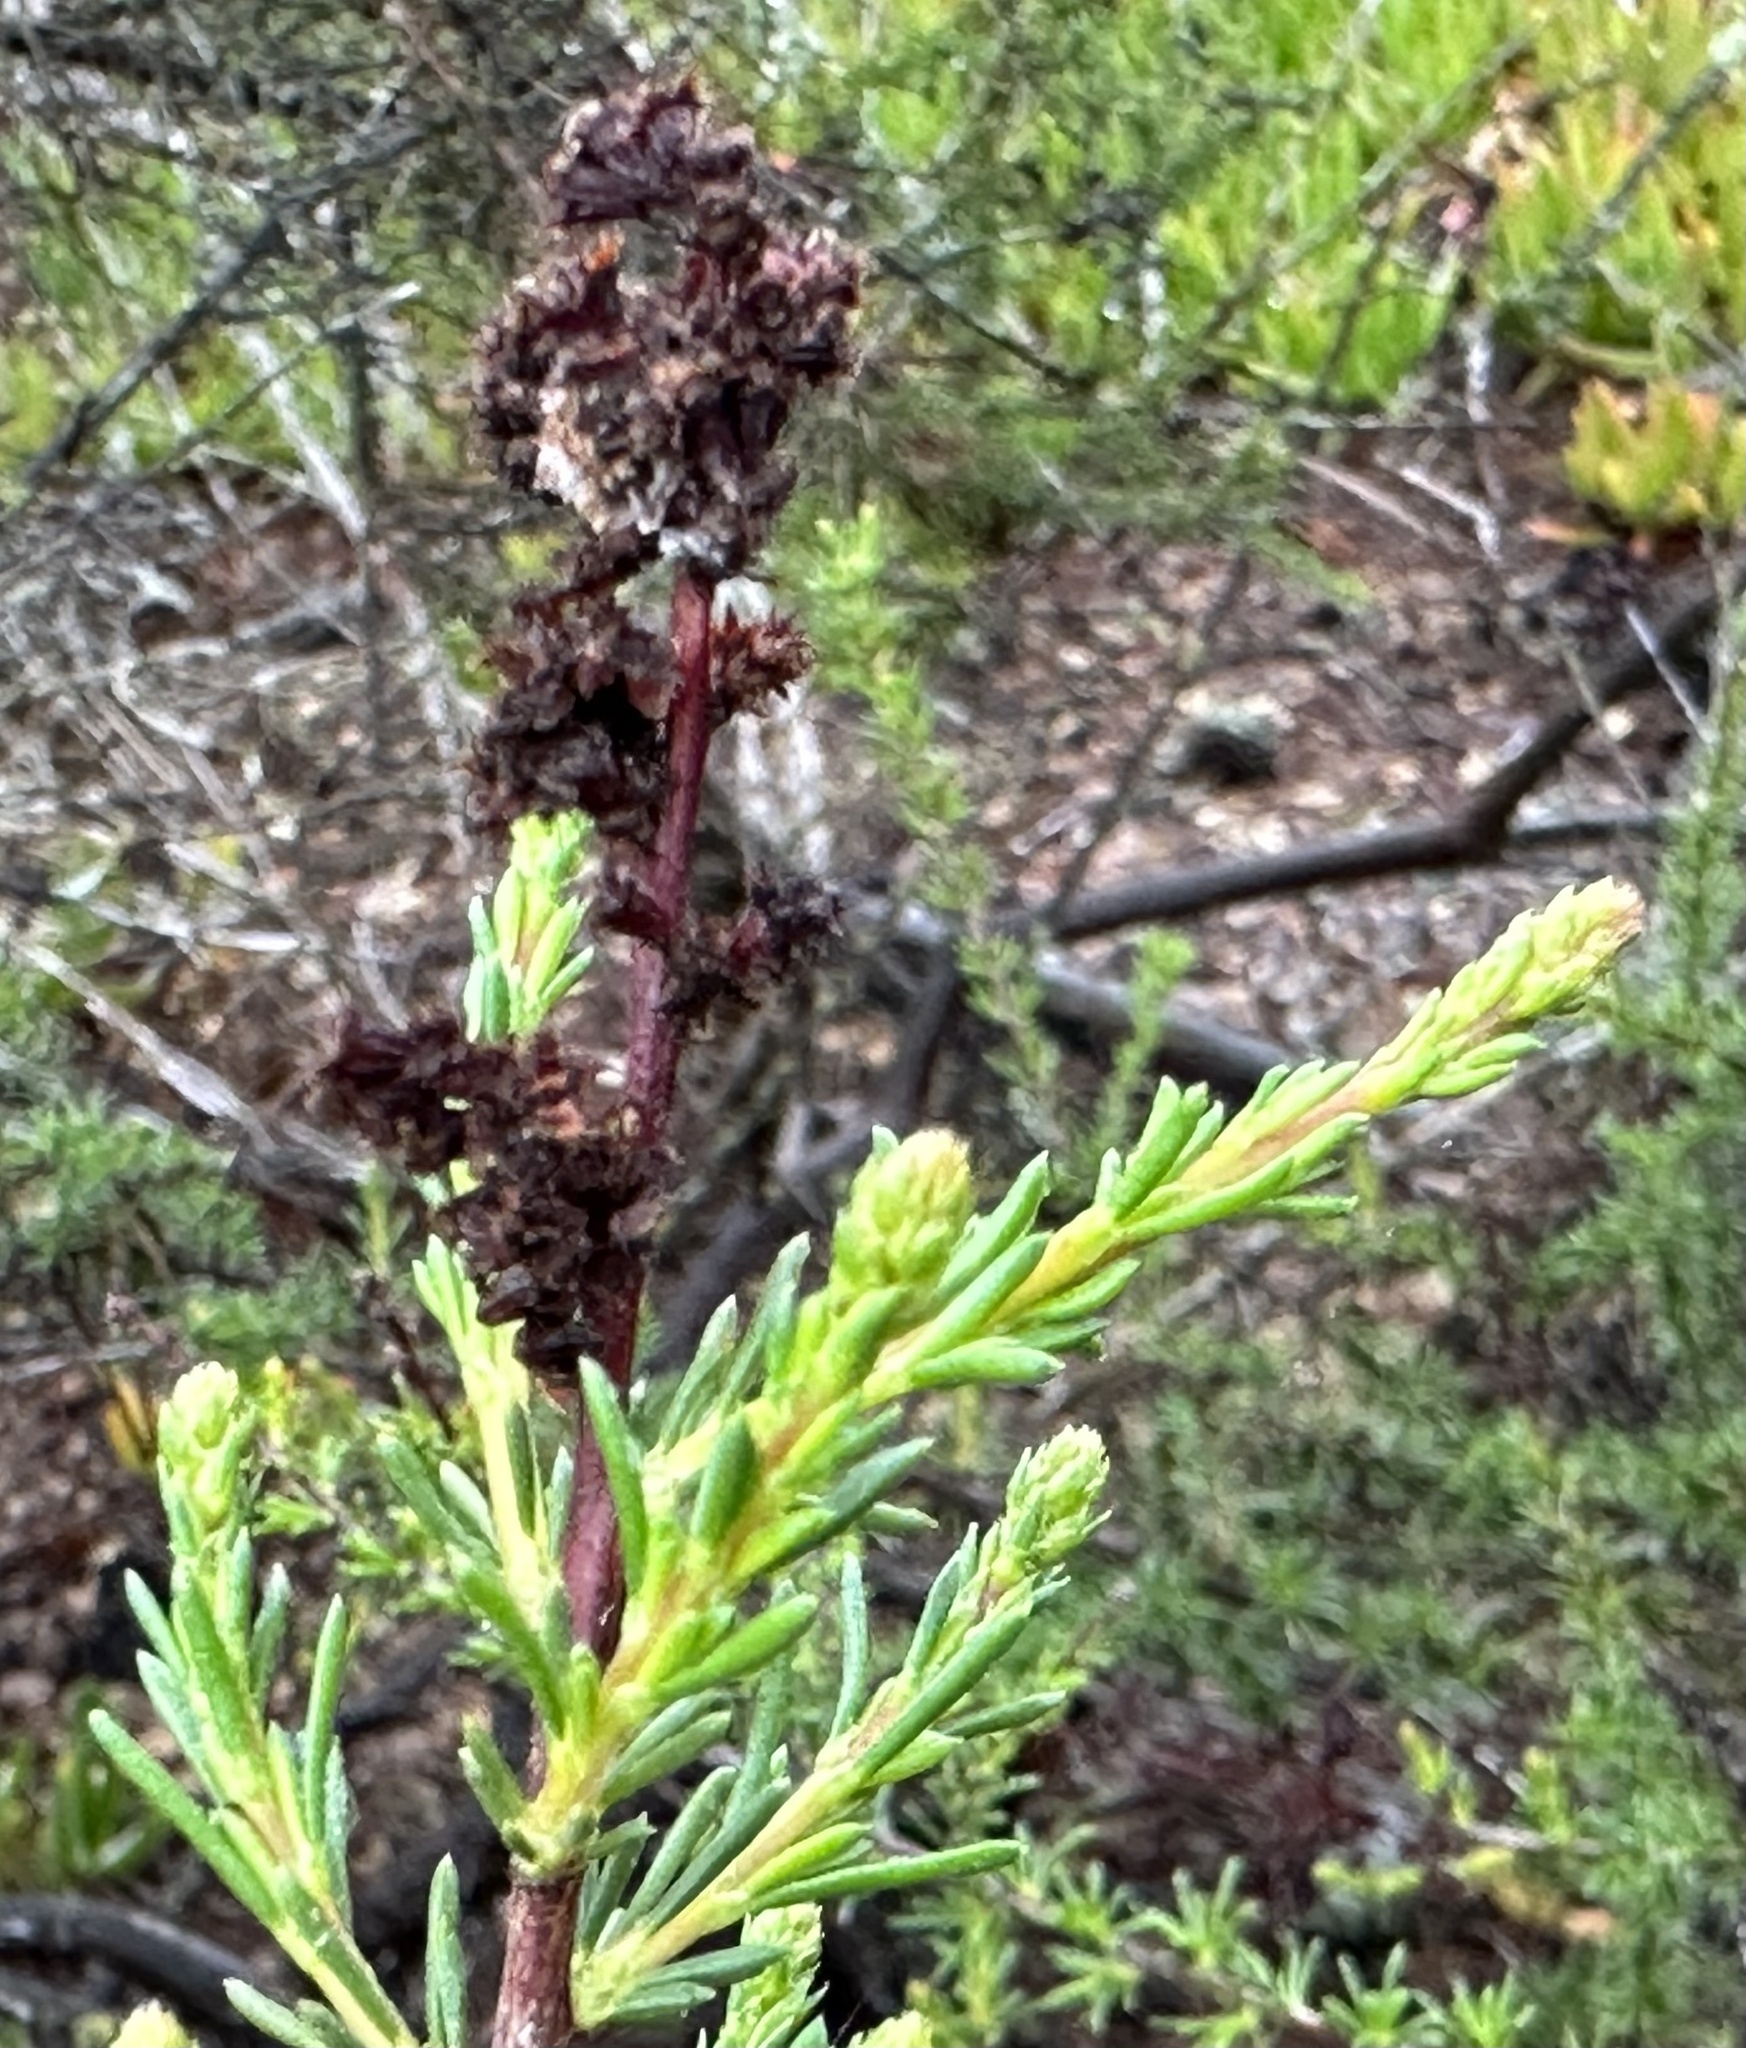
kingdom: Plantae
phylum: Tracheophyta
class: Magnoliopsida
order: Rosales
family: Rosaceae
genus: Adenostoma
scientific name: Adenostoma fasciculatum
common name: Chamise
